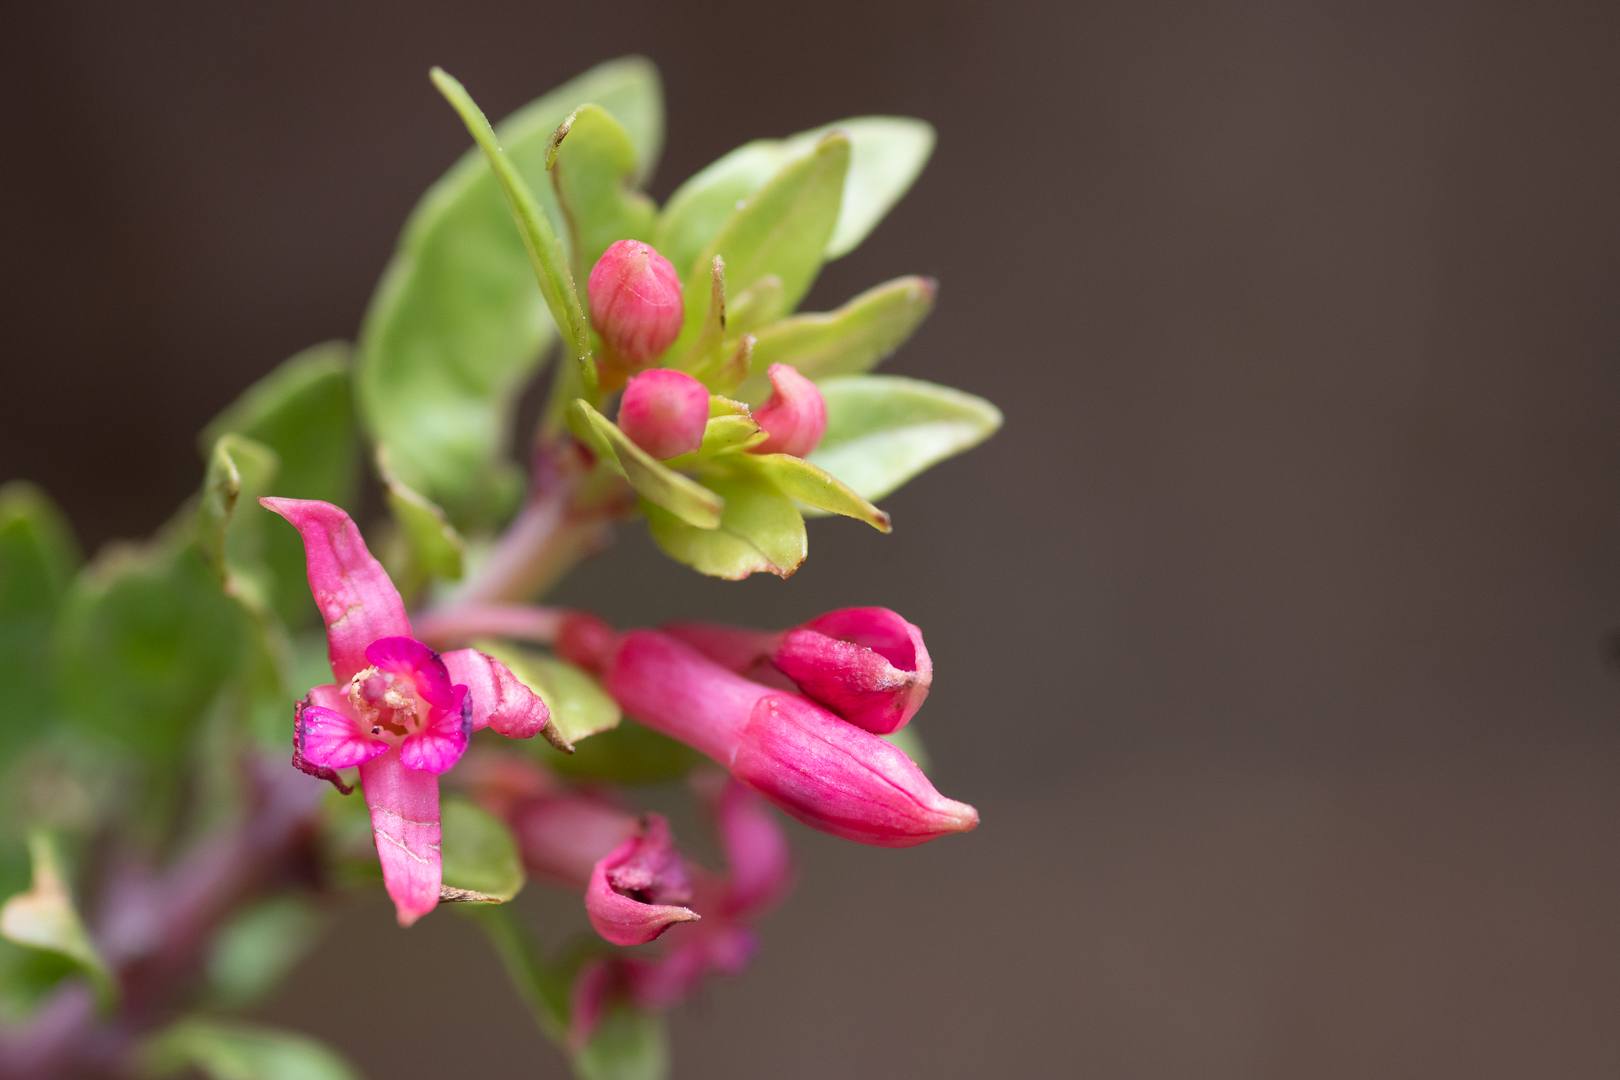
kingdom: Plantae
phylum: Tracheophyta
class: Magnoliopsida
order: Myrtales
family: Onagraceae
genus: Fuchsia
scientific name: Fuchsia lycioides
